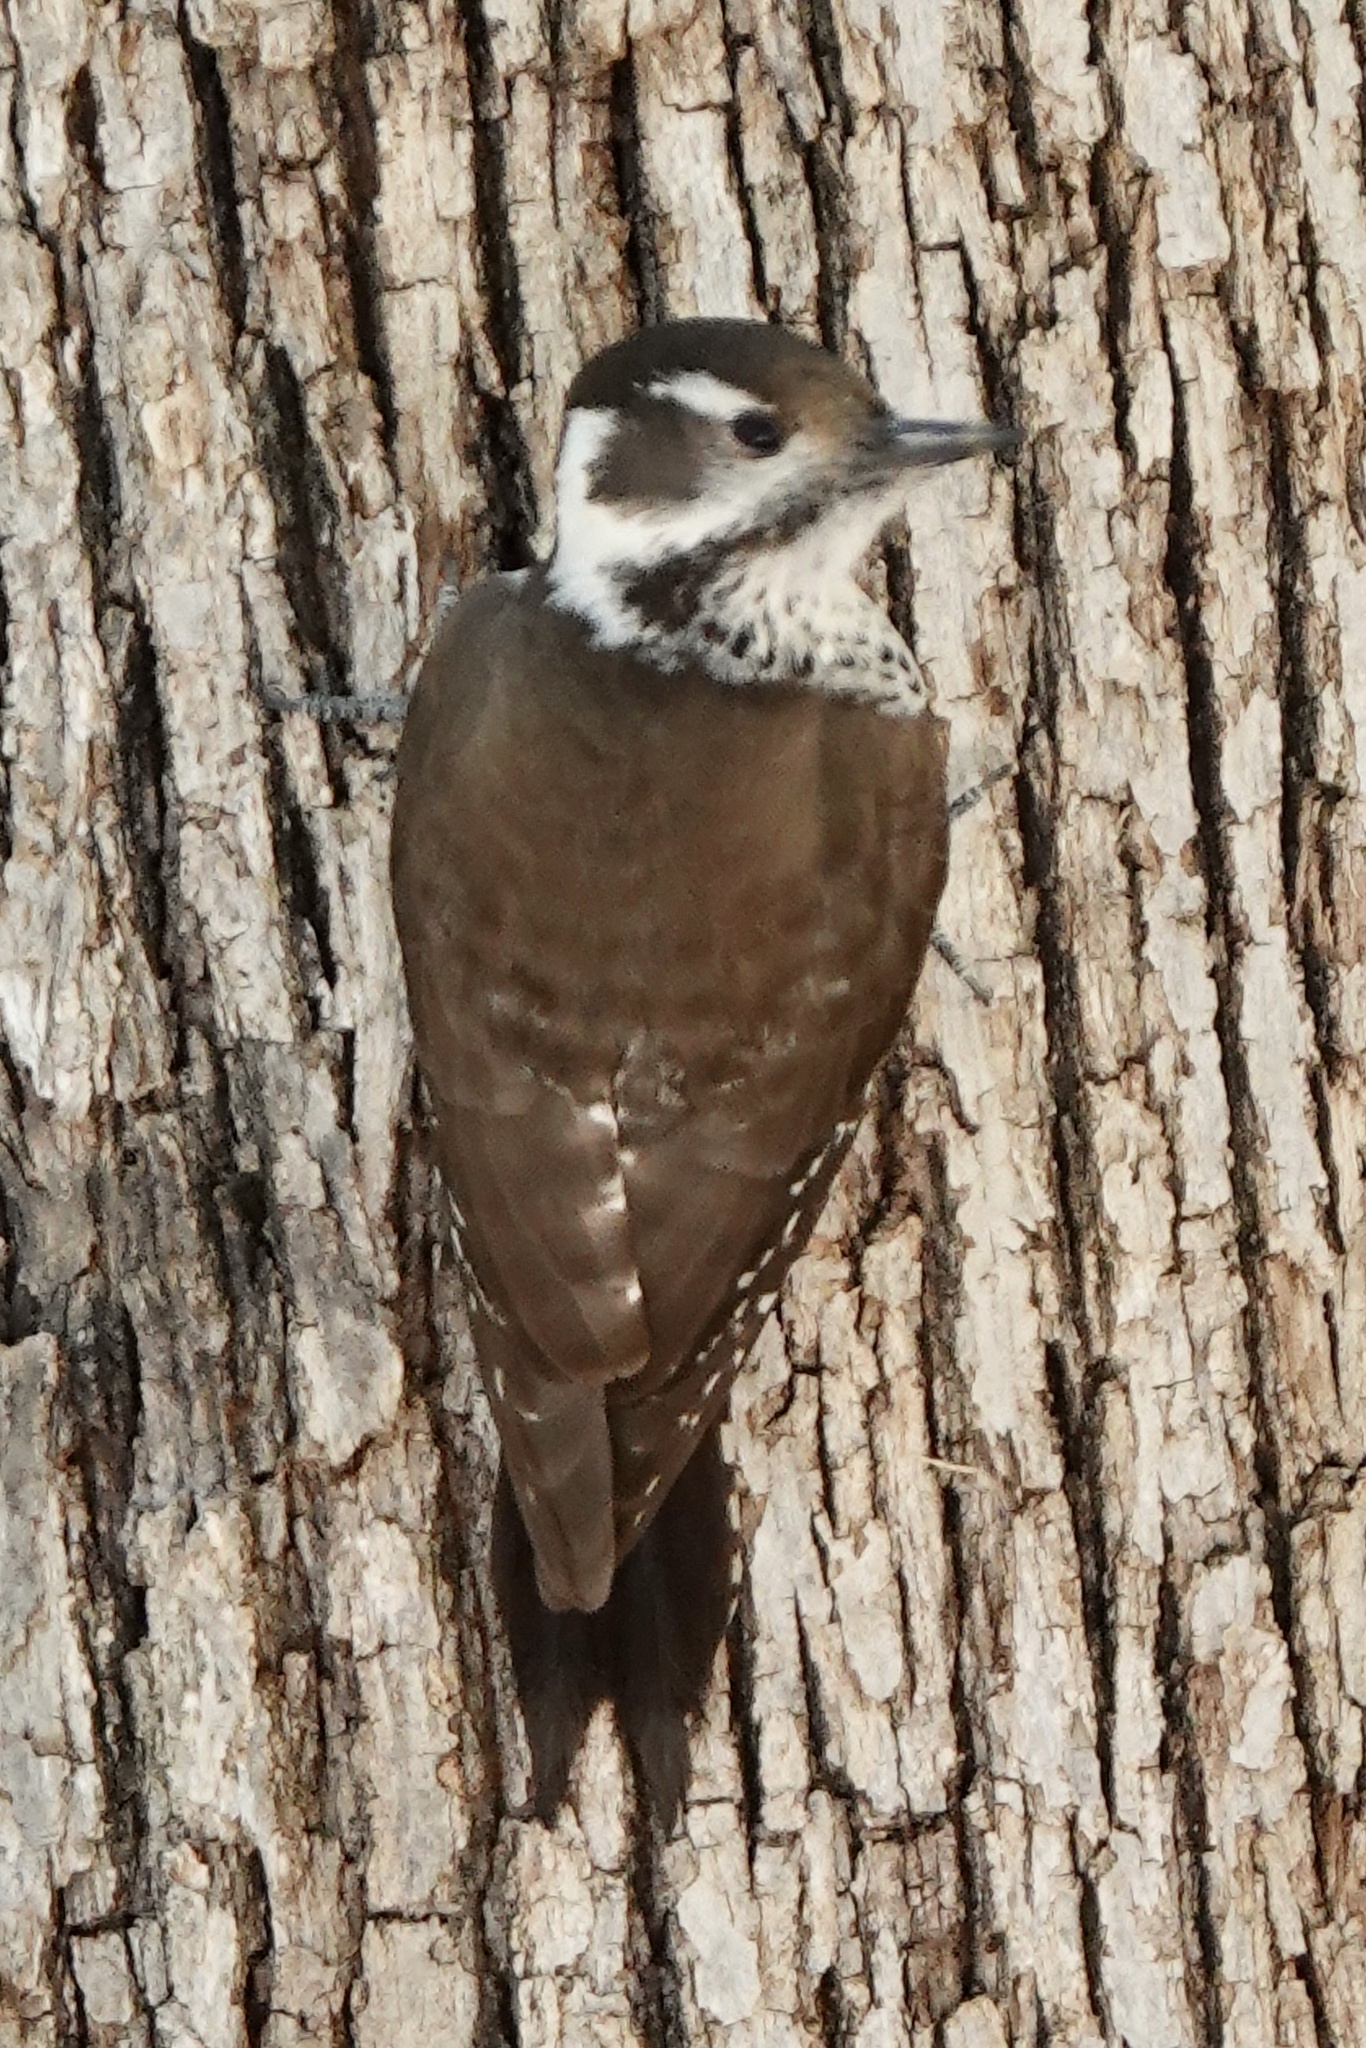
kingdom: Animalia
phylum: Chordata
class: Aves
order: Piciformes
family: Picidae
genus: Leuconotopicus
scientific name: Leuconotopicus arizonae
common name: Arizona woodpecker
